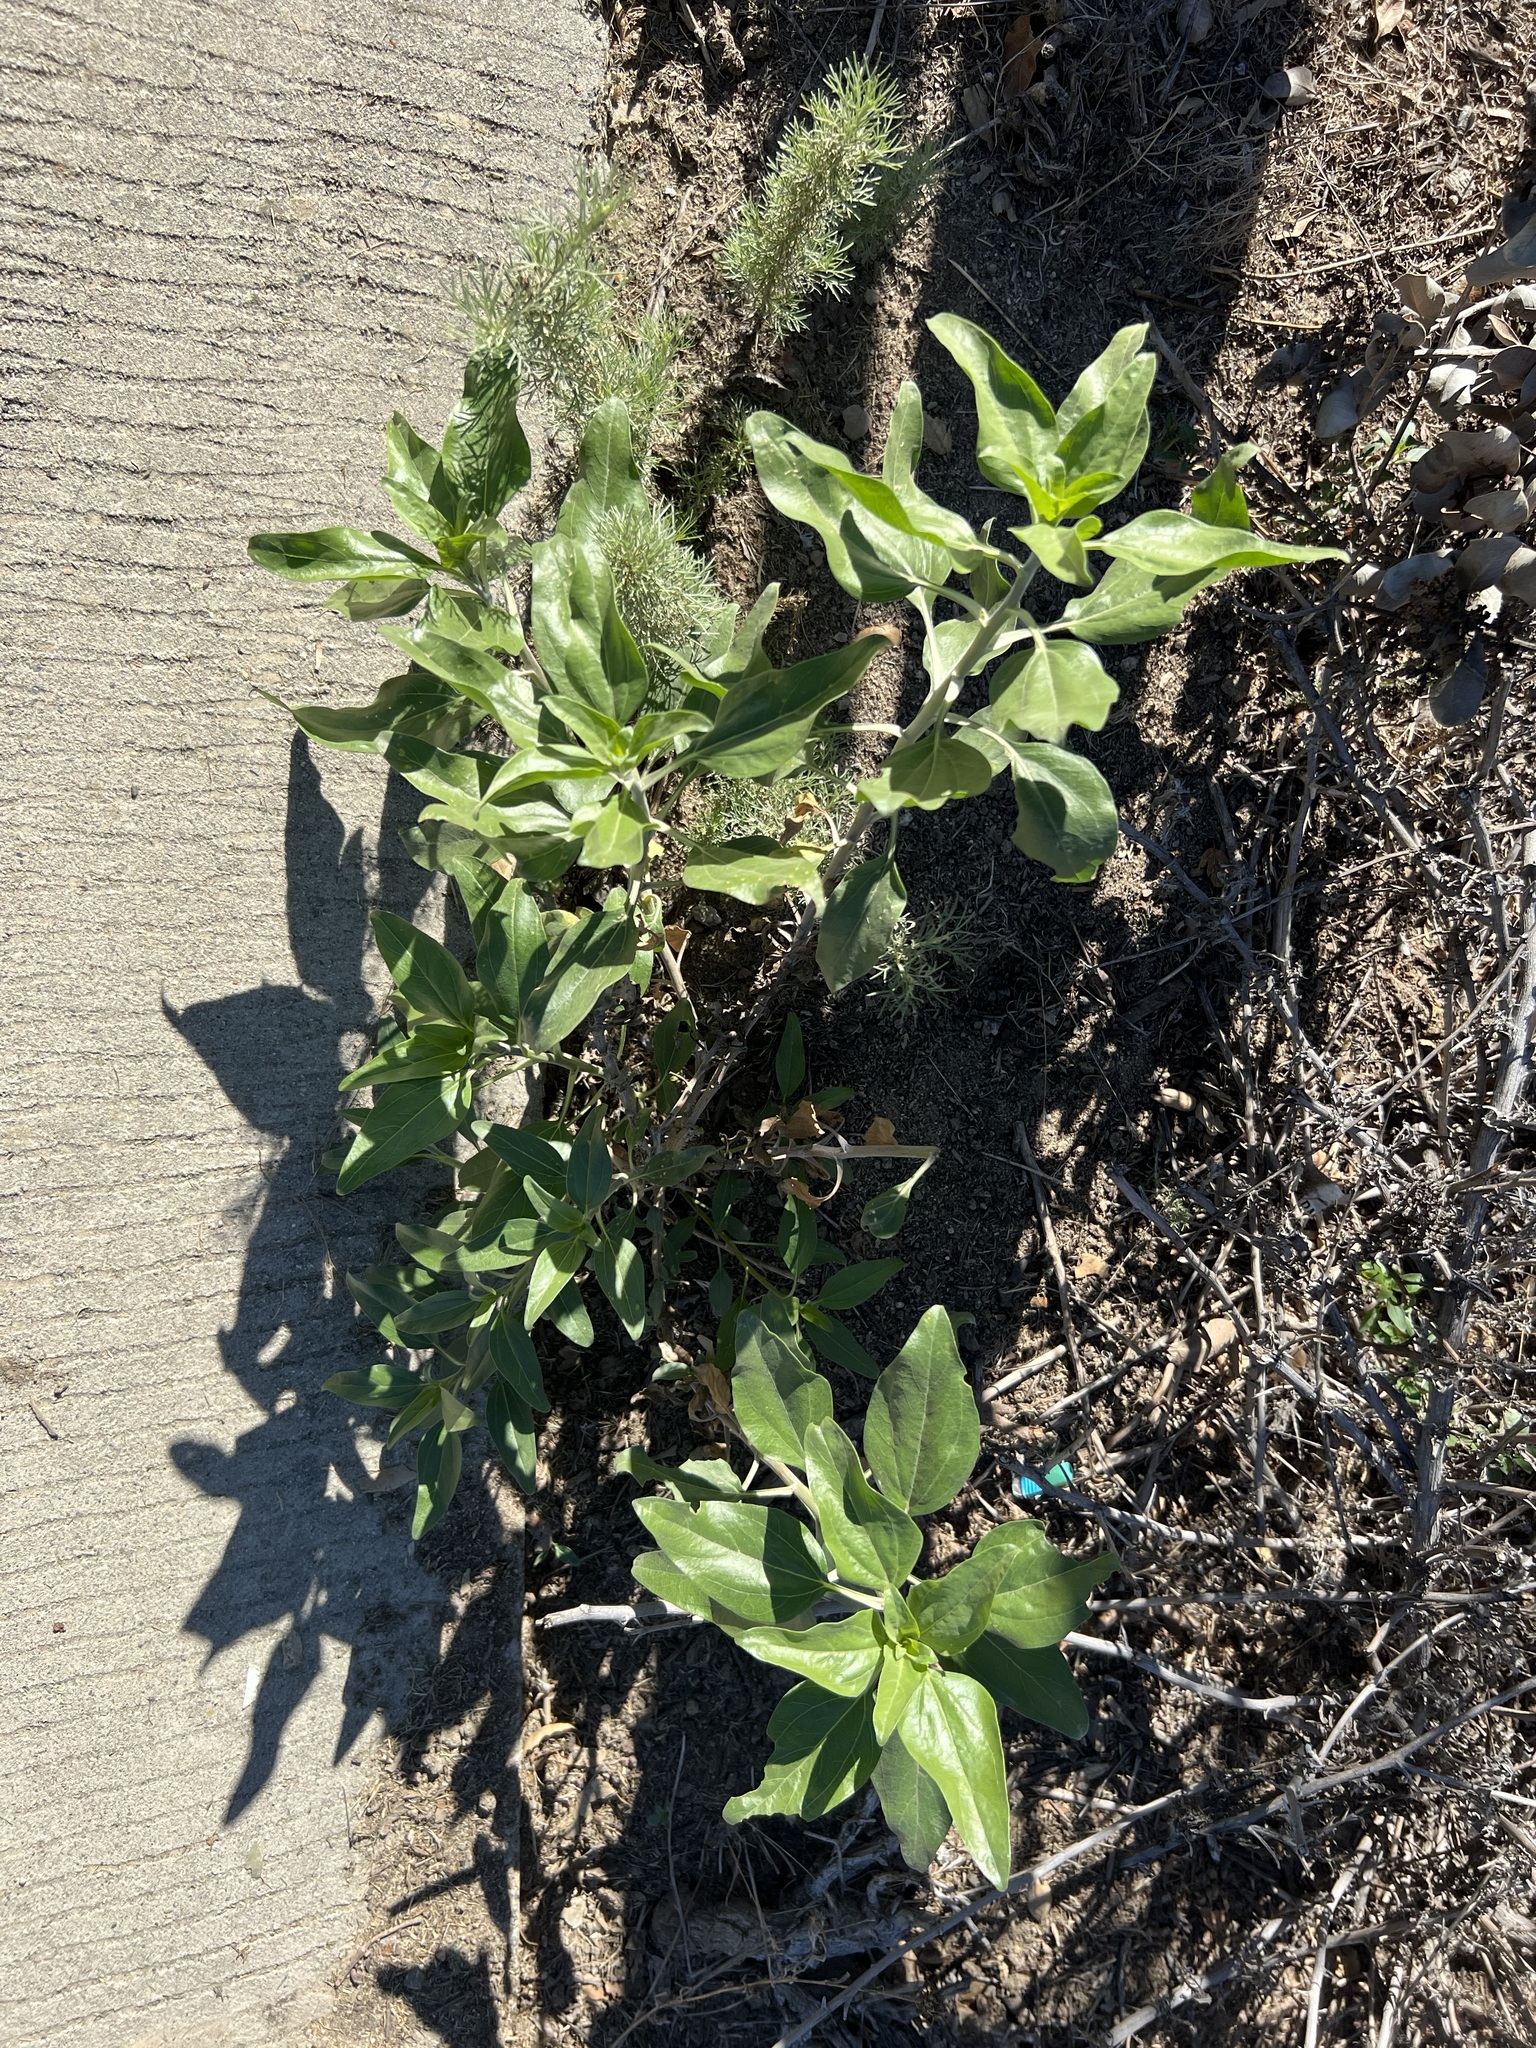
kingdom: Plantae
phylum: Tracheophyta
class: Magnoliopsida
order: Asterales
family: Asteraceae
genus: Encelia
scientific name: Encelia californica
